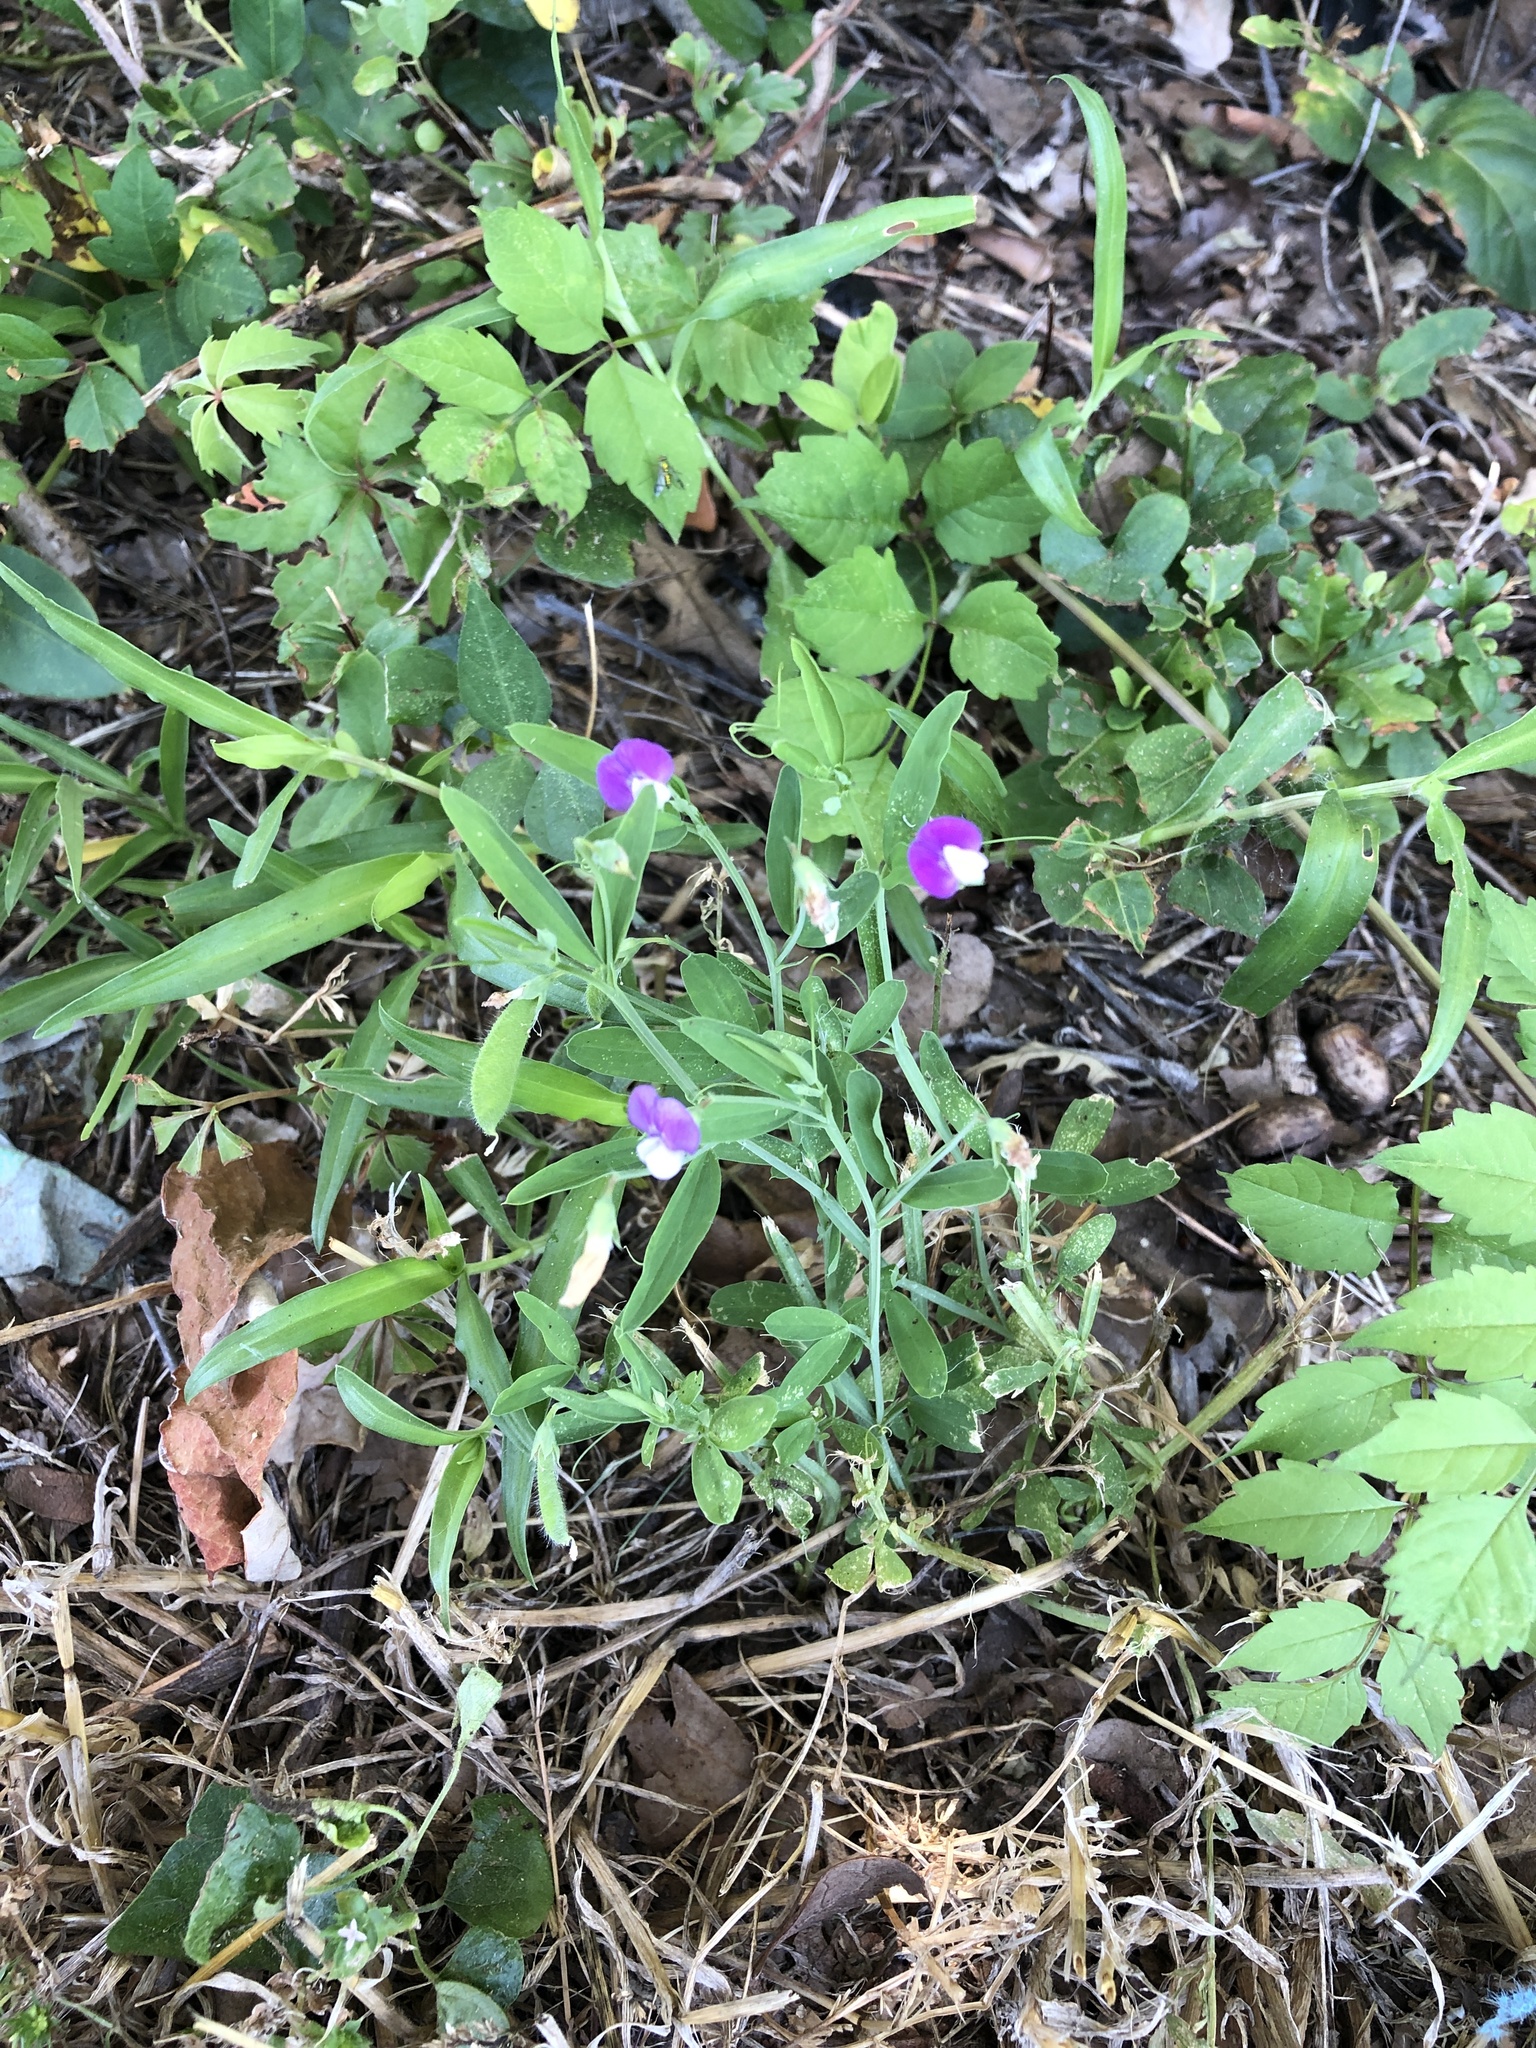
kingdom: Plantae
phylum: Tracheophyta
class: Magnoliopsida
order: Fabales
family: Fabaceae
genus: Lathyrus
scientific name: Lathyrus hirsutus
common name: Hairy vetchling
